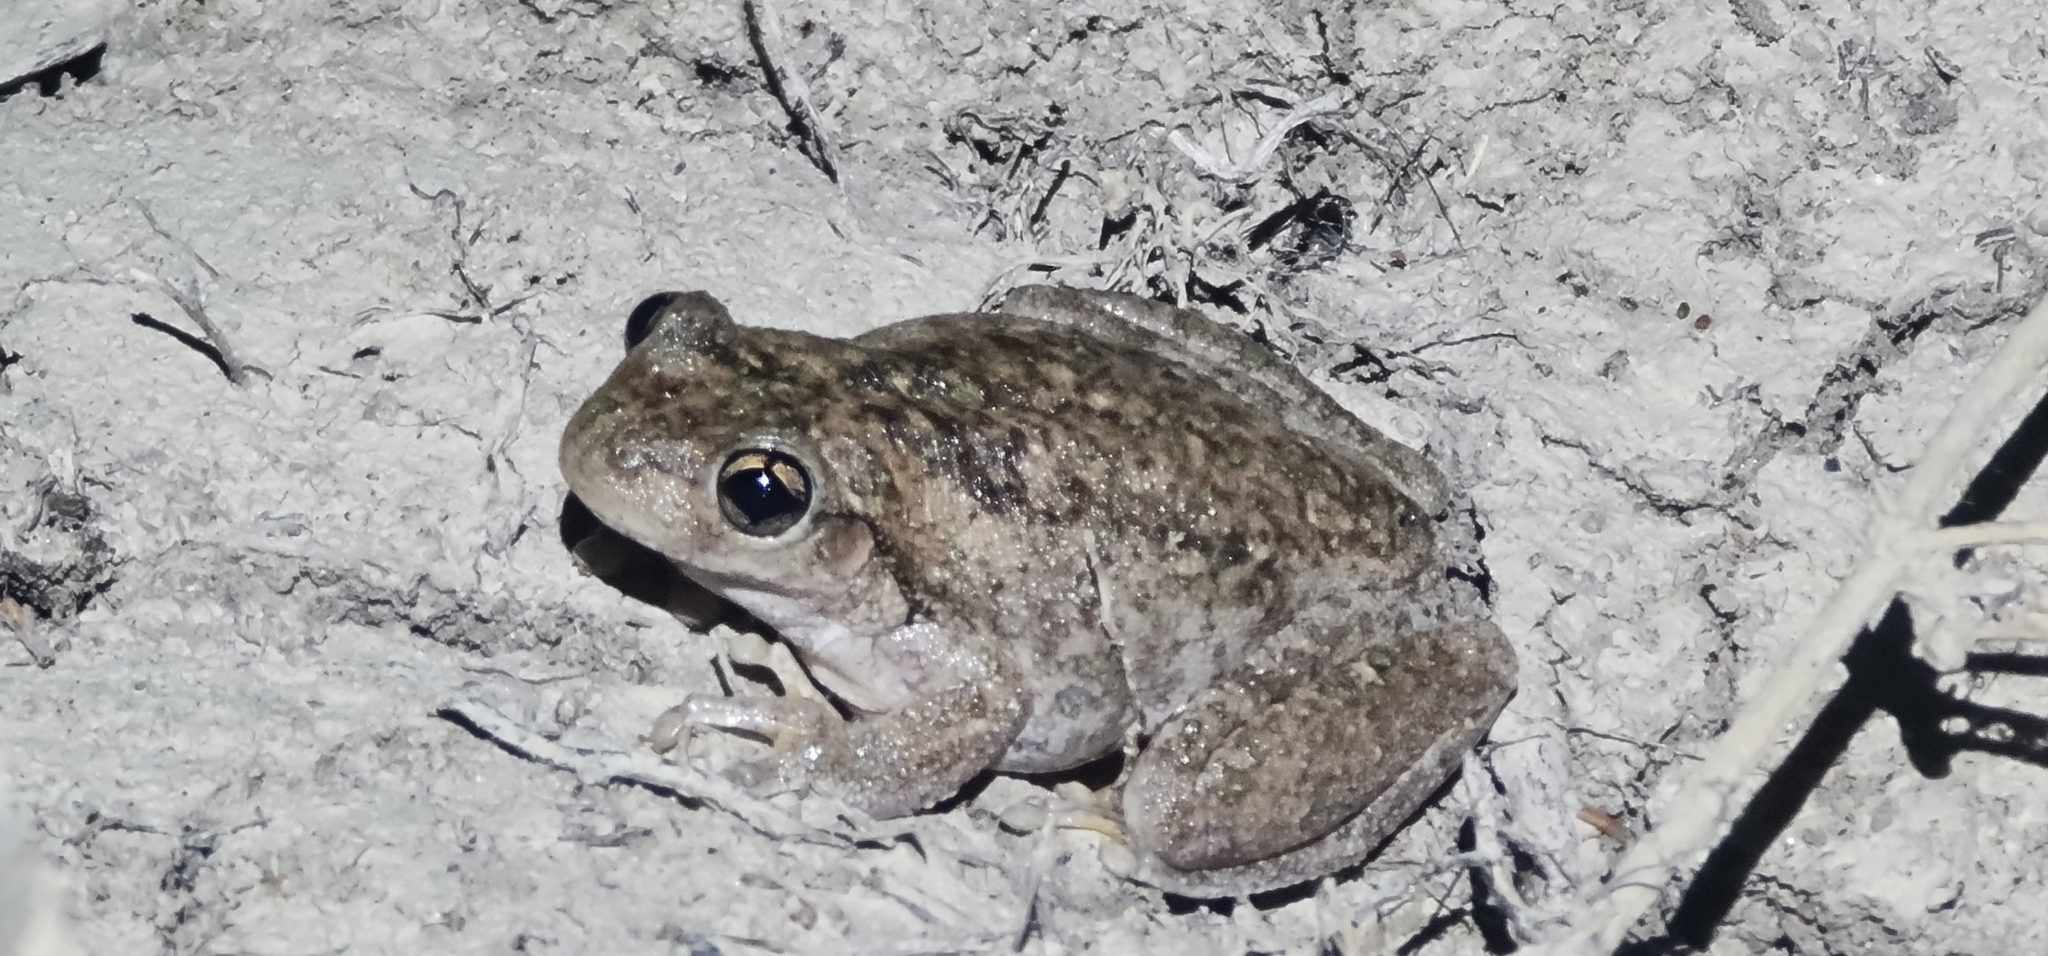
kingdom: Animalia
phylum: Chordata
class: Amphibia
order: Anura
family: Pelodryadidae
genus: Litoria
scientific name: Litoria peronii
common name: Emerald spotted treefrog
